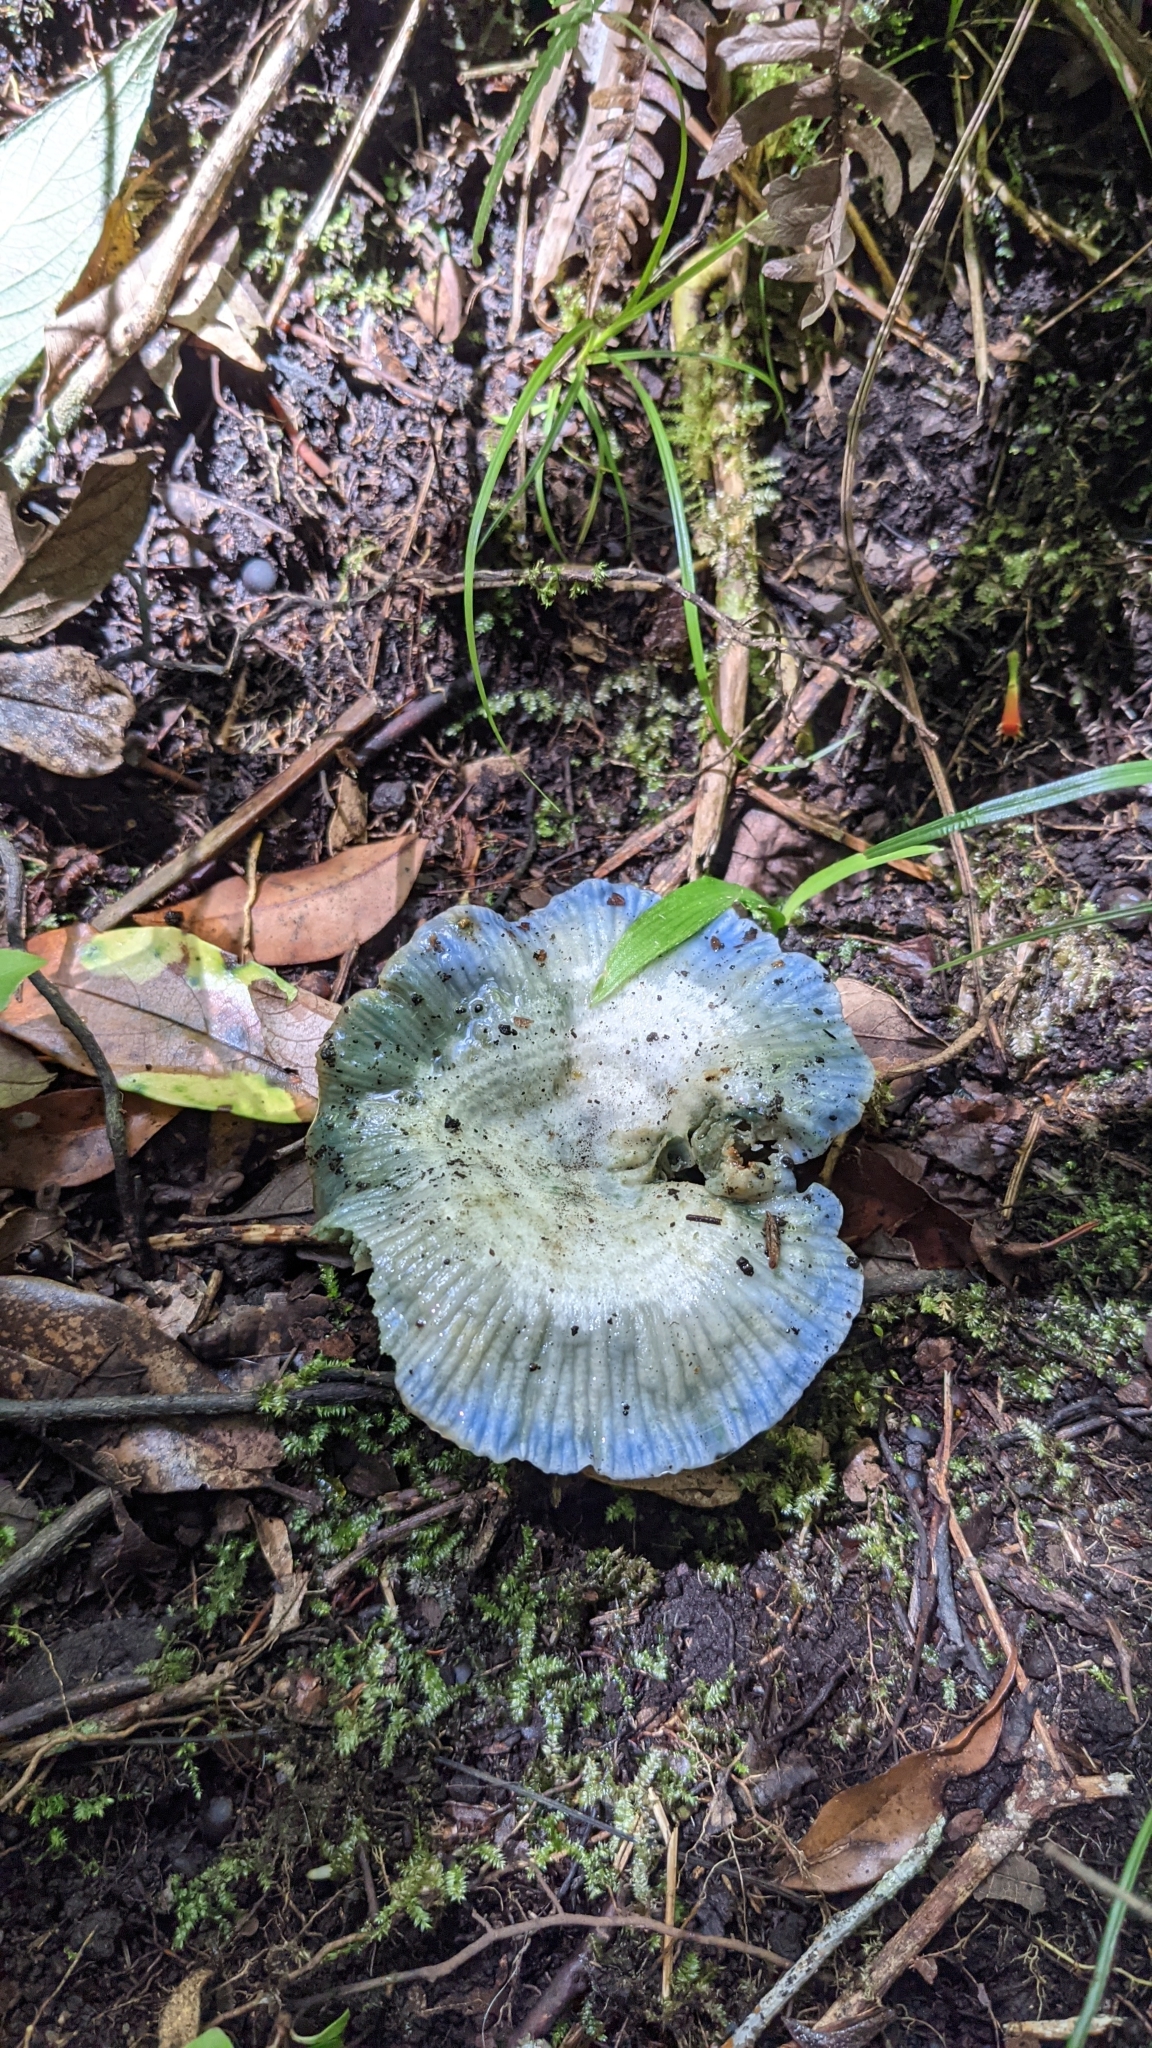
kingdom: Fungi
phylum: Basidiomycota
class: Agaricomycetes
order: Russulales
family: Russulaceae
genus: Lactarius
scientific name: Lactarius indigo
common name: Indigo milk cap
